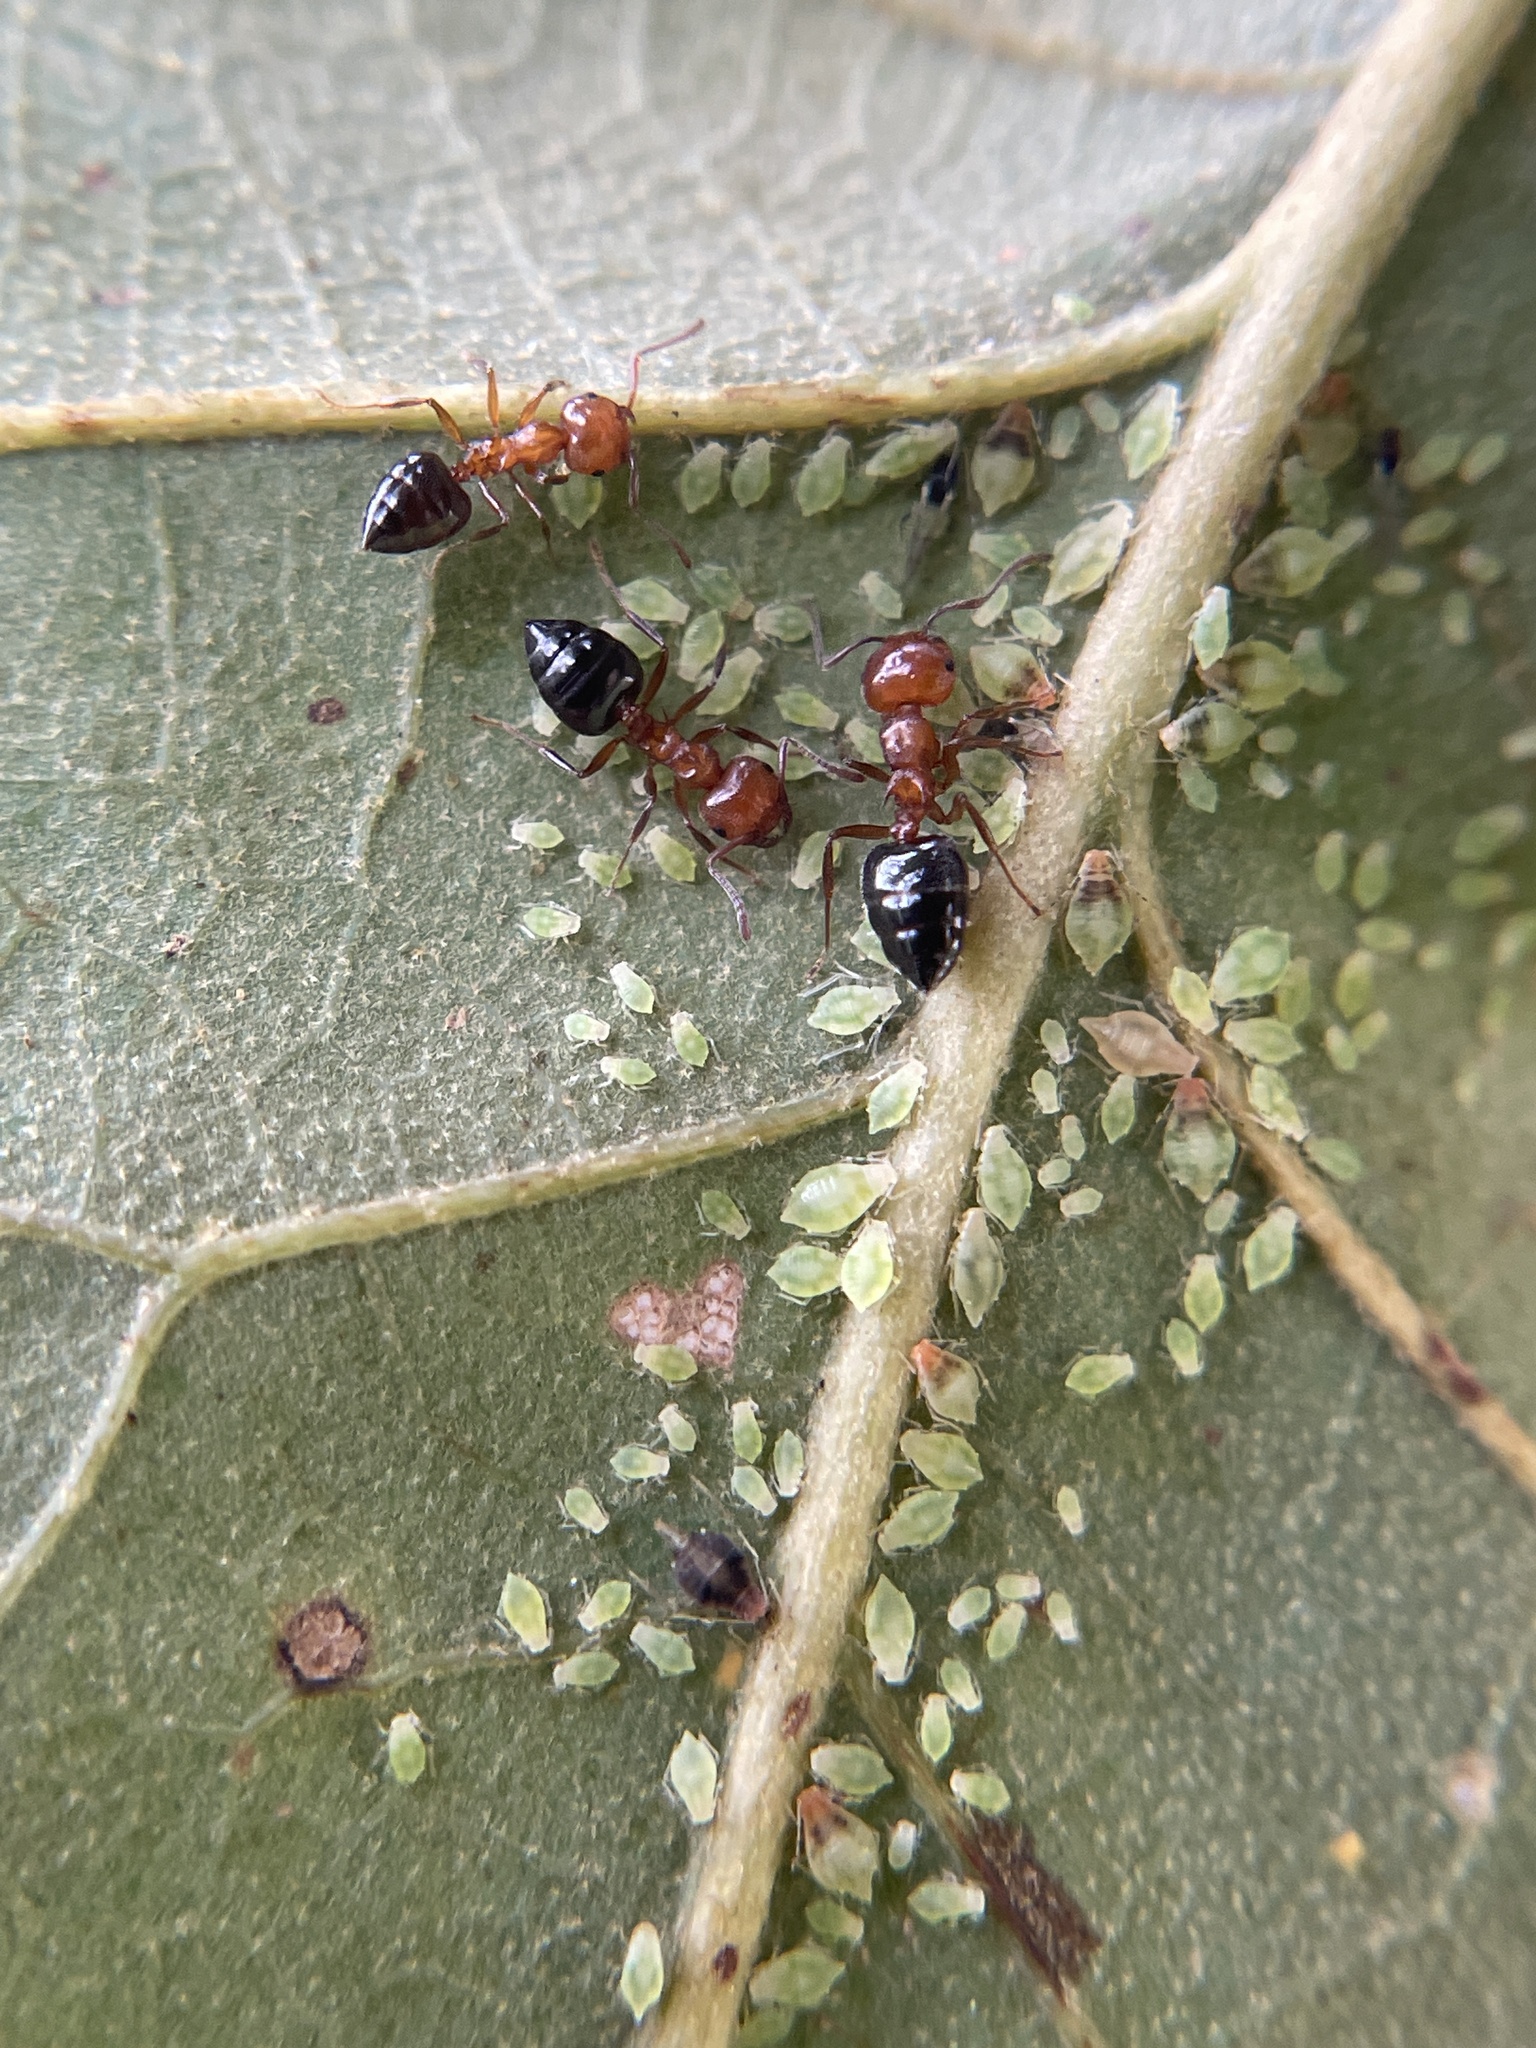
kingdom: Animalia
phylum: Arthropoda
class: Insecta
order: Hymenoptera
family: Formicidae
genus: Crematogaster
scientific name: Crematogaster laeviuscula
